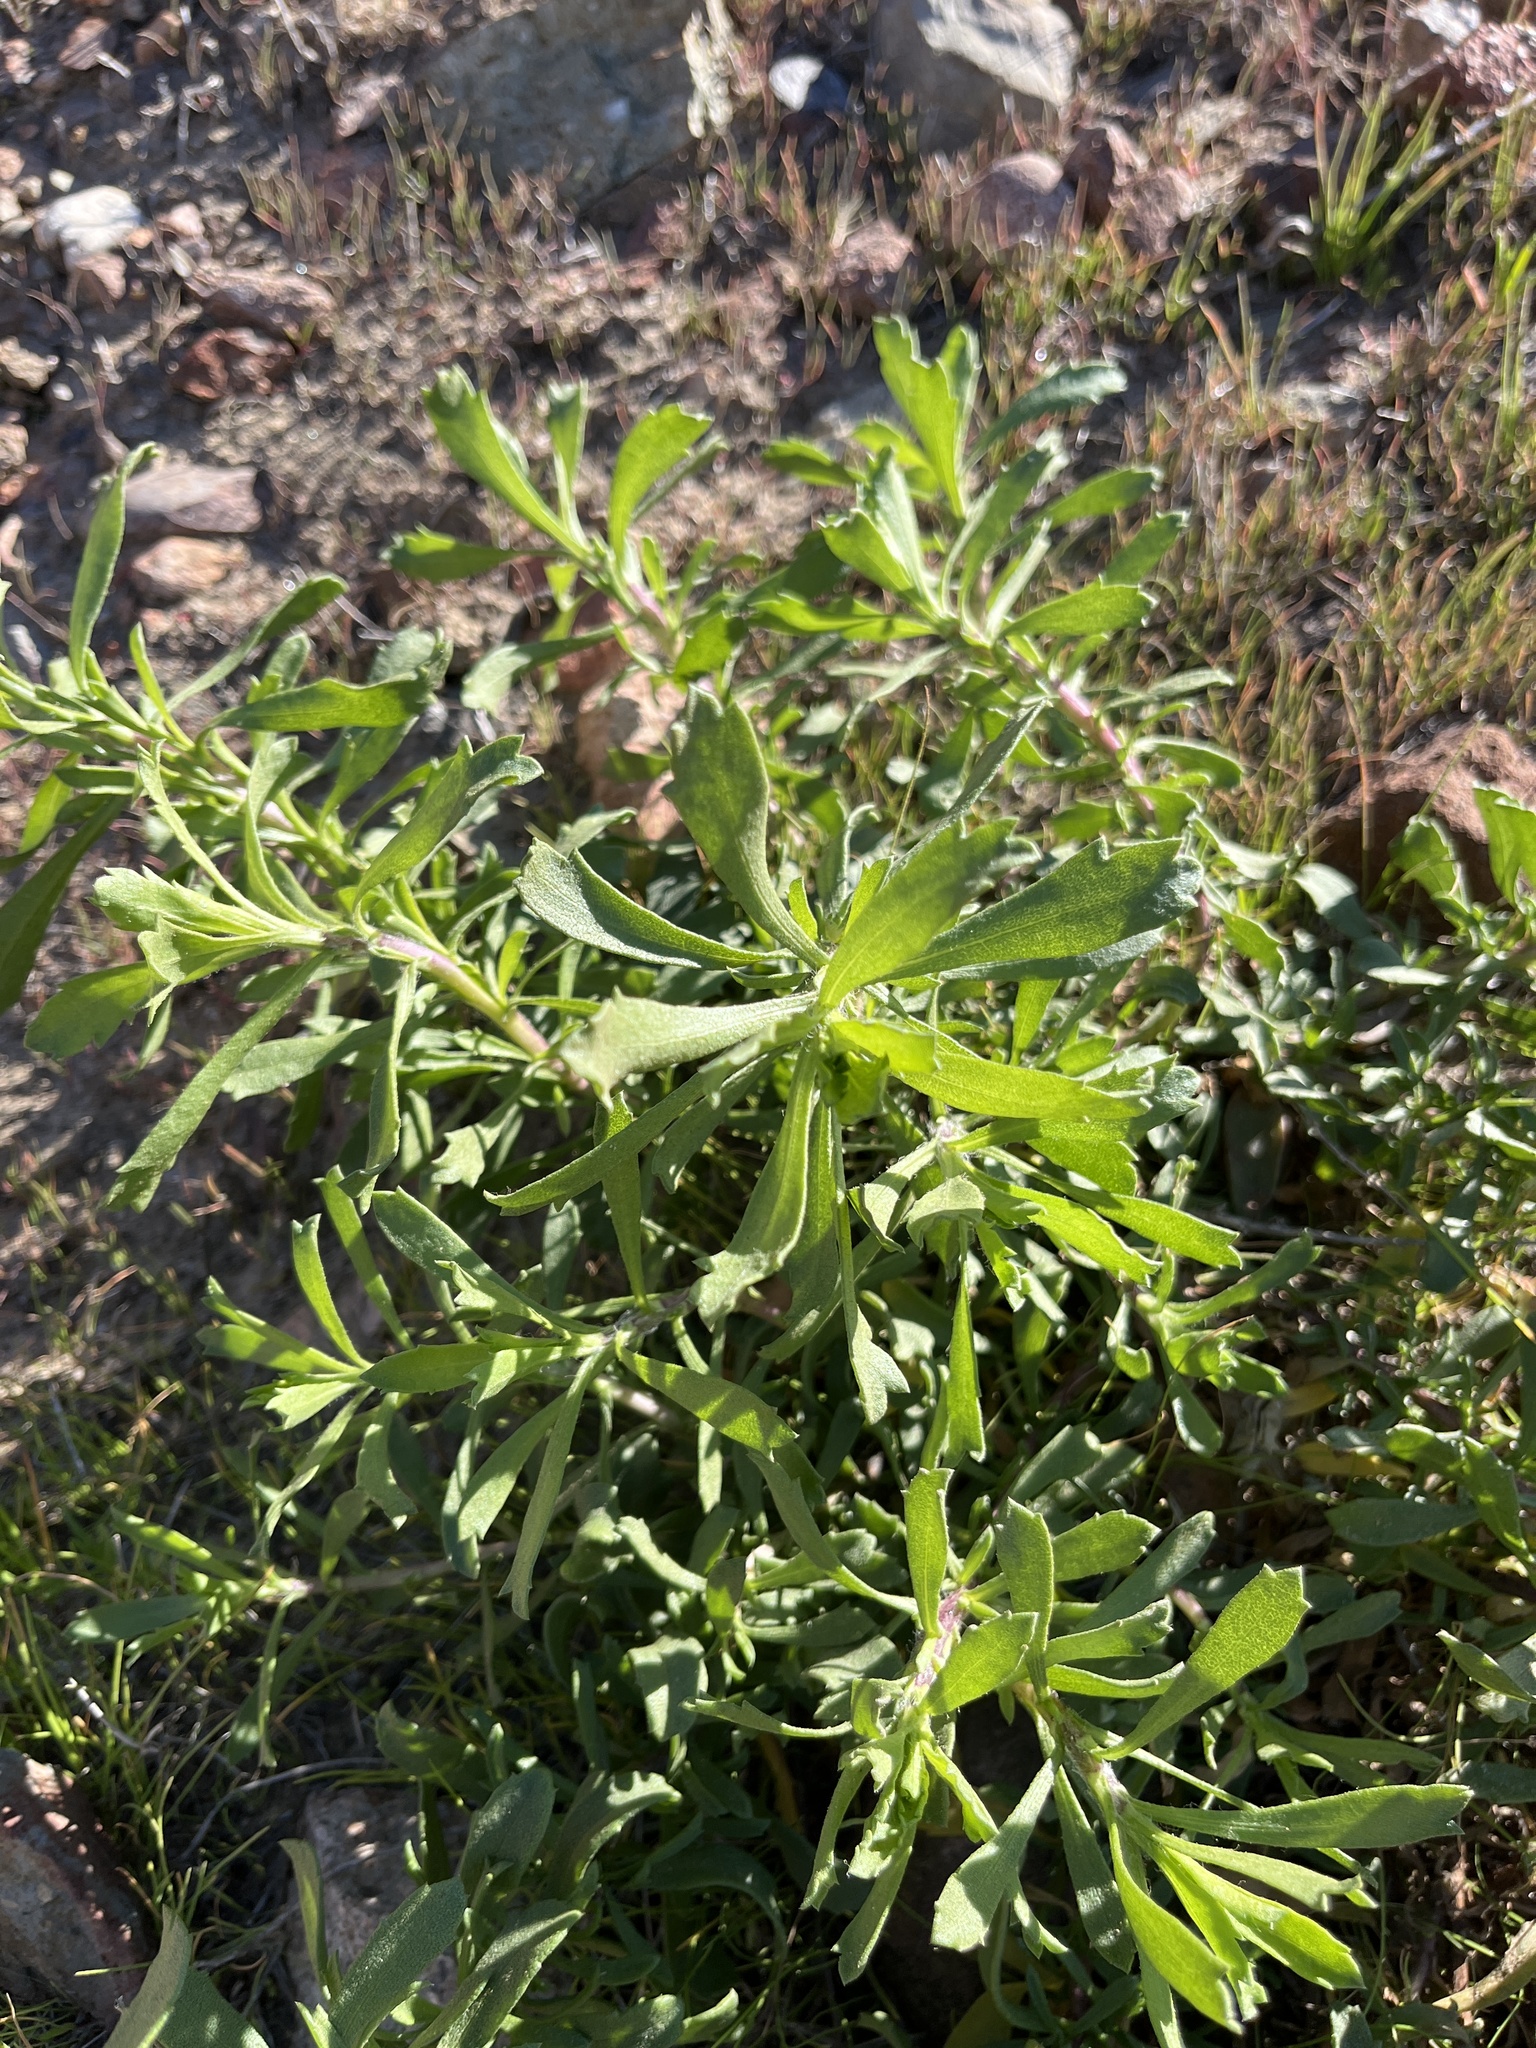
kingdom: Plantae
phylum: Tracheophyta
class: Magnoliopsida
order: Asterales
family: Asteraceae
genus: Isocoma
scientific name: Isocoma menziesii
